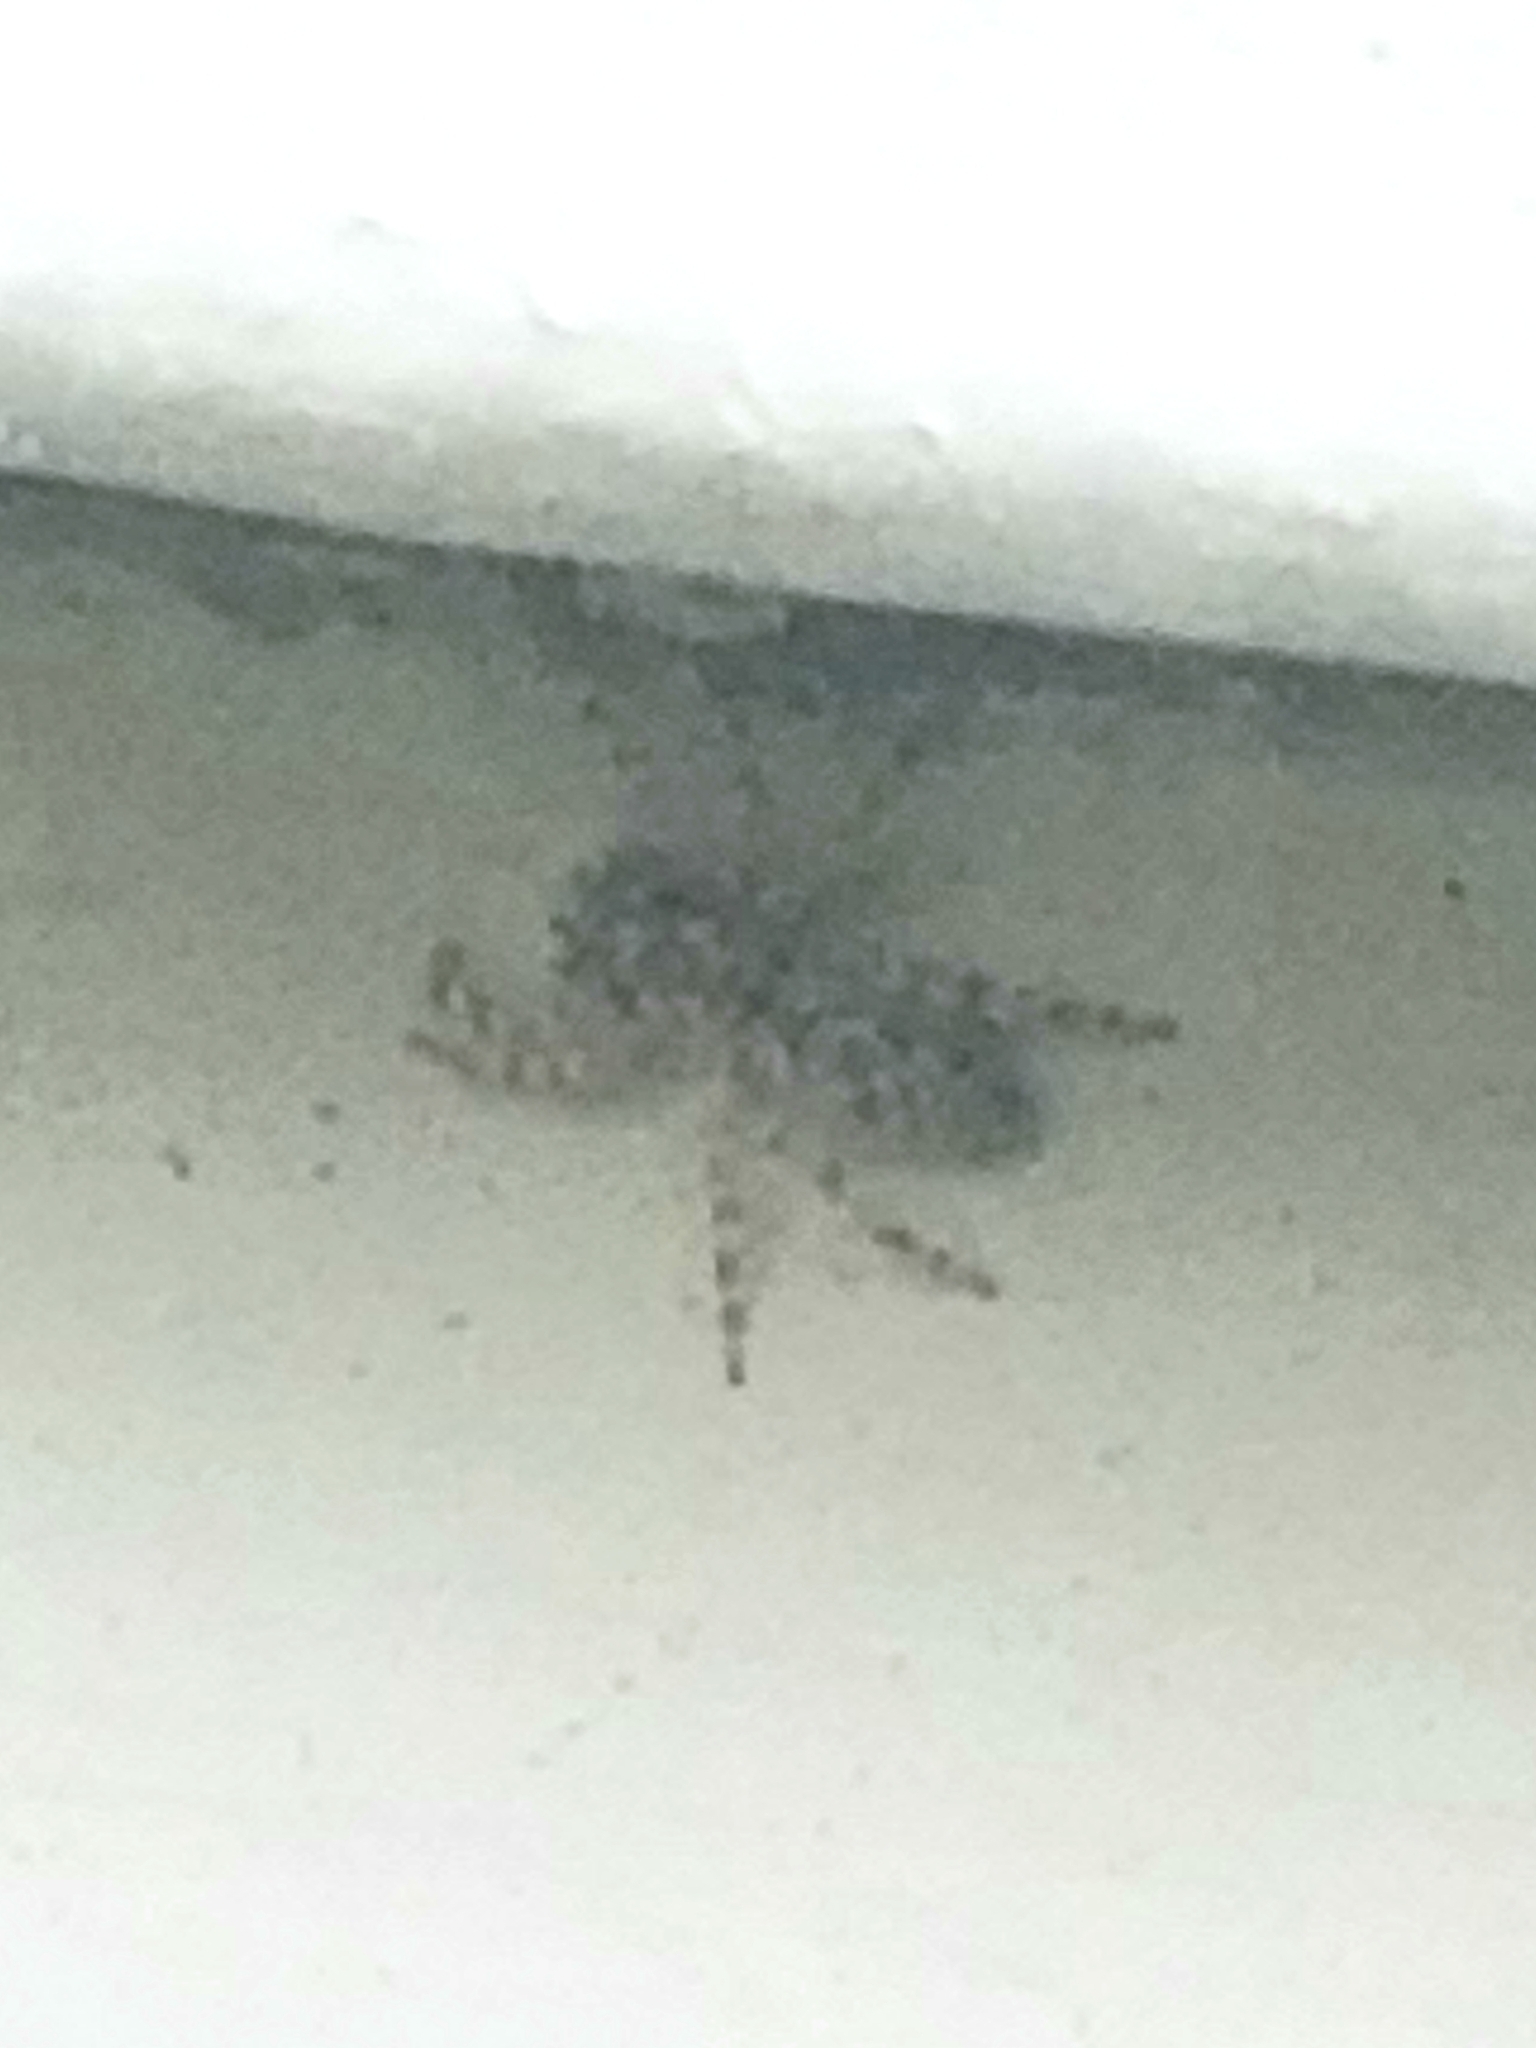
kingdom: Animalia
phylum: Arthropoda
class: Arachnida
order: Araneae
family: Salticidae
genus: Platycryptus
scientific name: Platycryptus undatus
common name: Tan jumping spider
